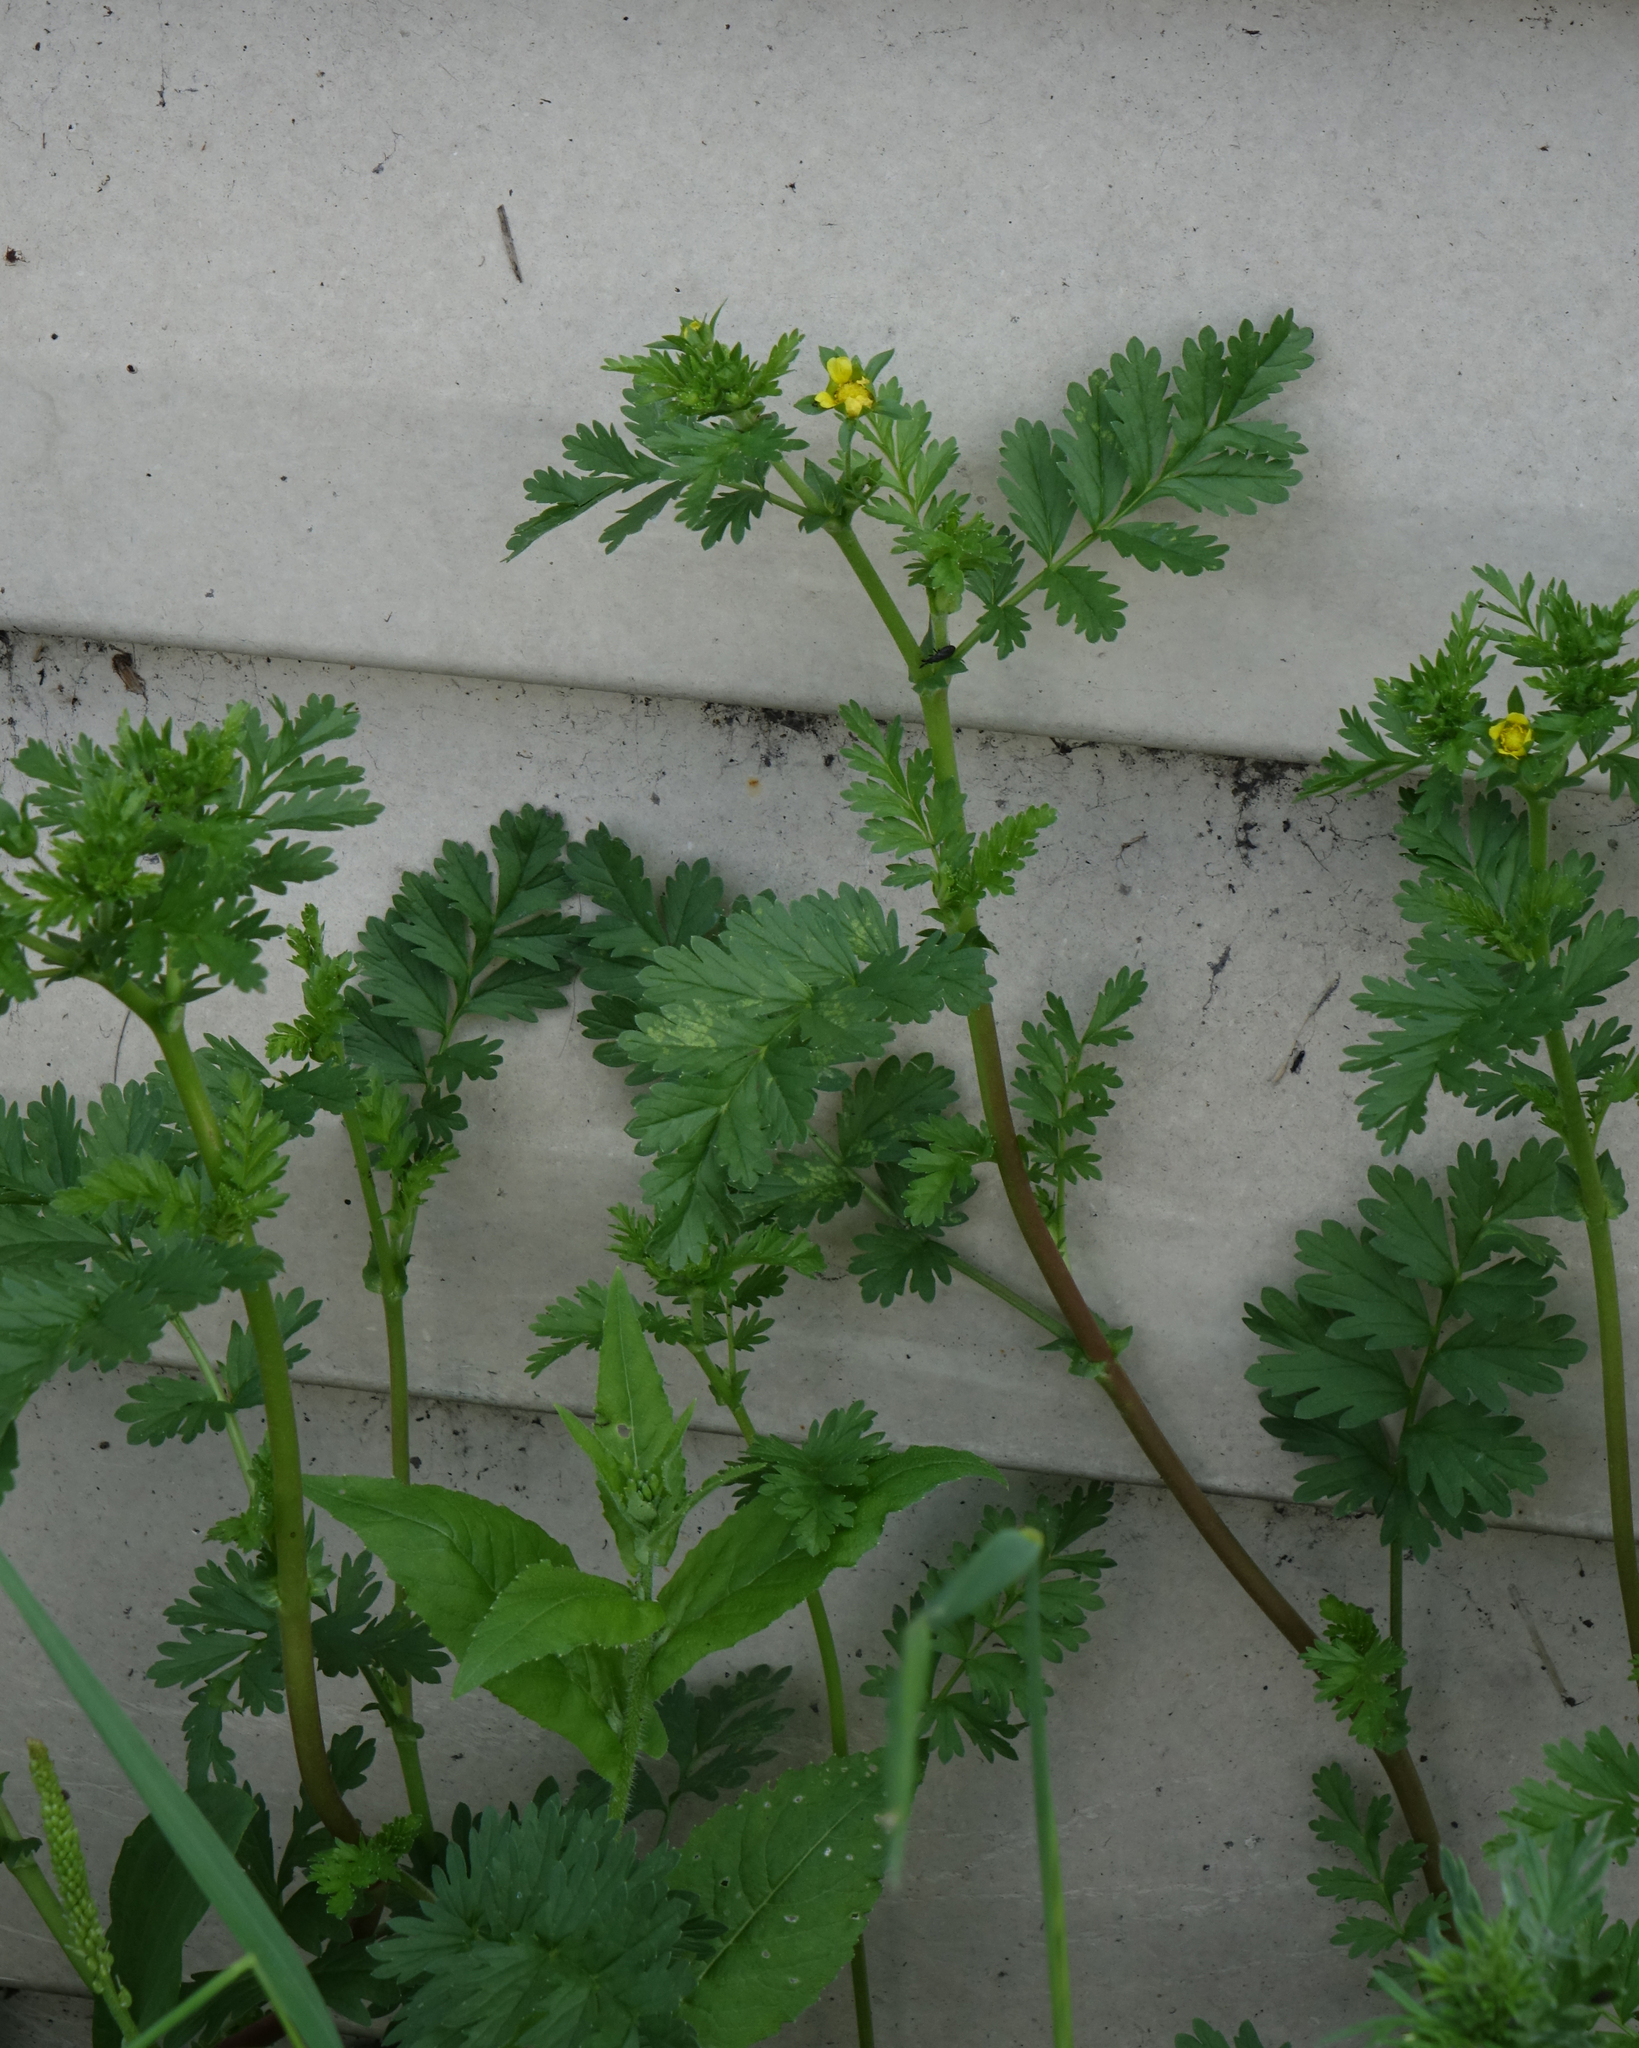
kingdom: Plantae
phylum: Tracheophyta
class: Magnoliopsida
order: Rosales
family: Rosaceae
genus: Potentilla
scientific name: Potentilla supina
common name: Prostrate cinquefoil
